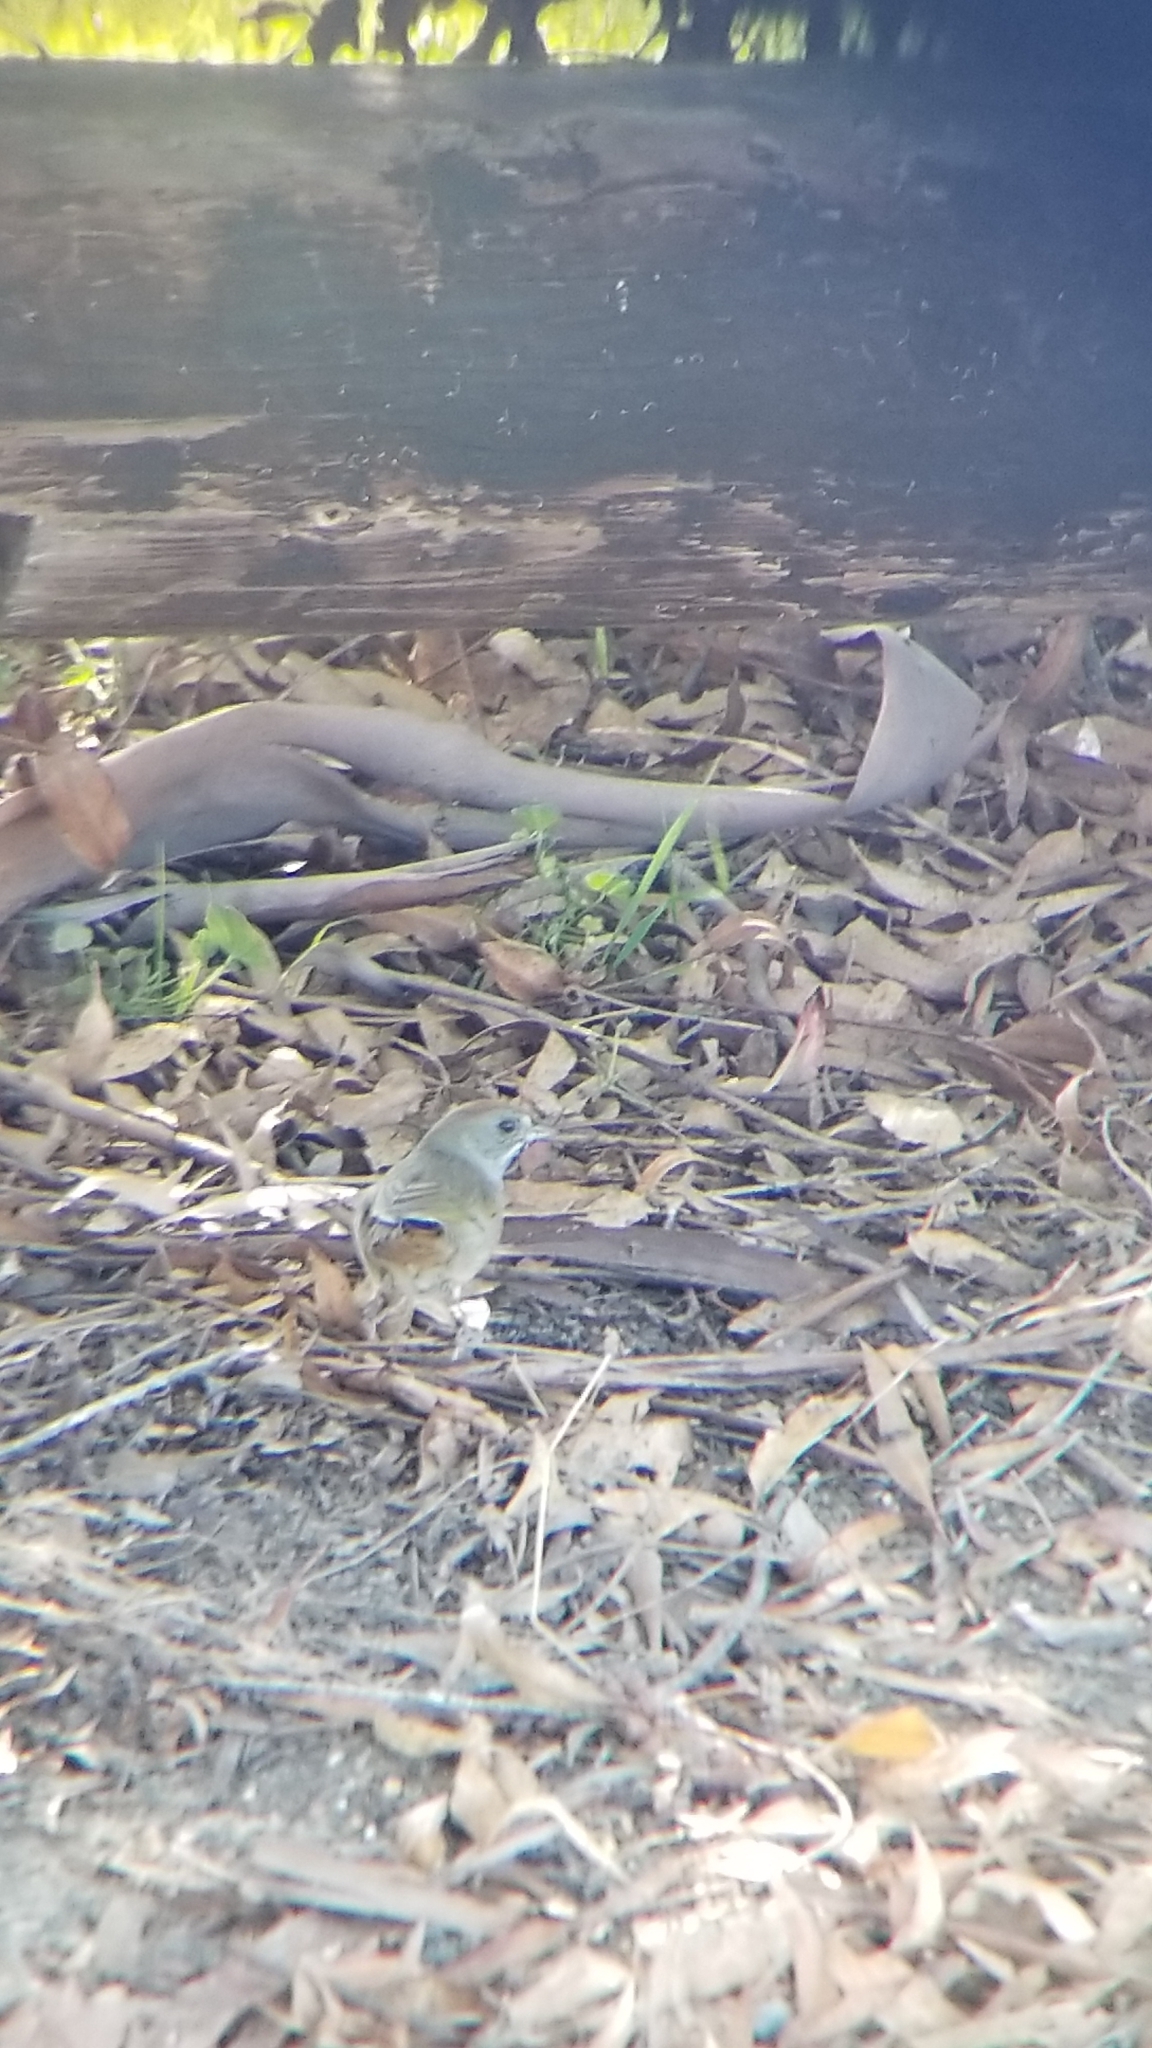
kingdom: Animalia
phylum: Chordata
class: Aves
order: Passeriformes
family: Passerellidae
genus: Pipilo
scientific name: Pipilo chlorurus
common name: Green-tailed towhee
